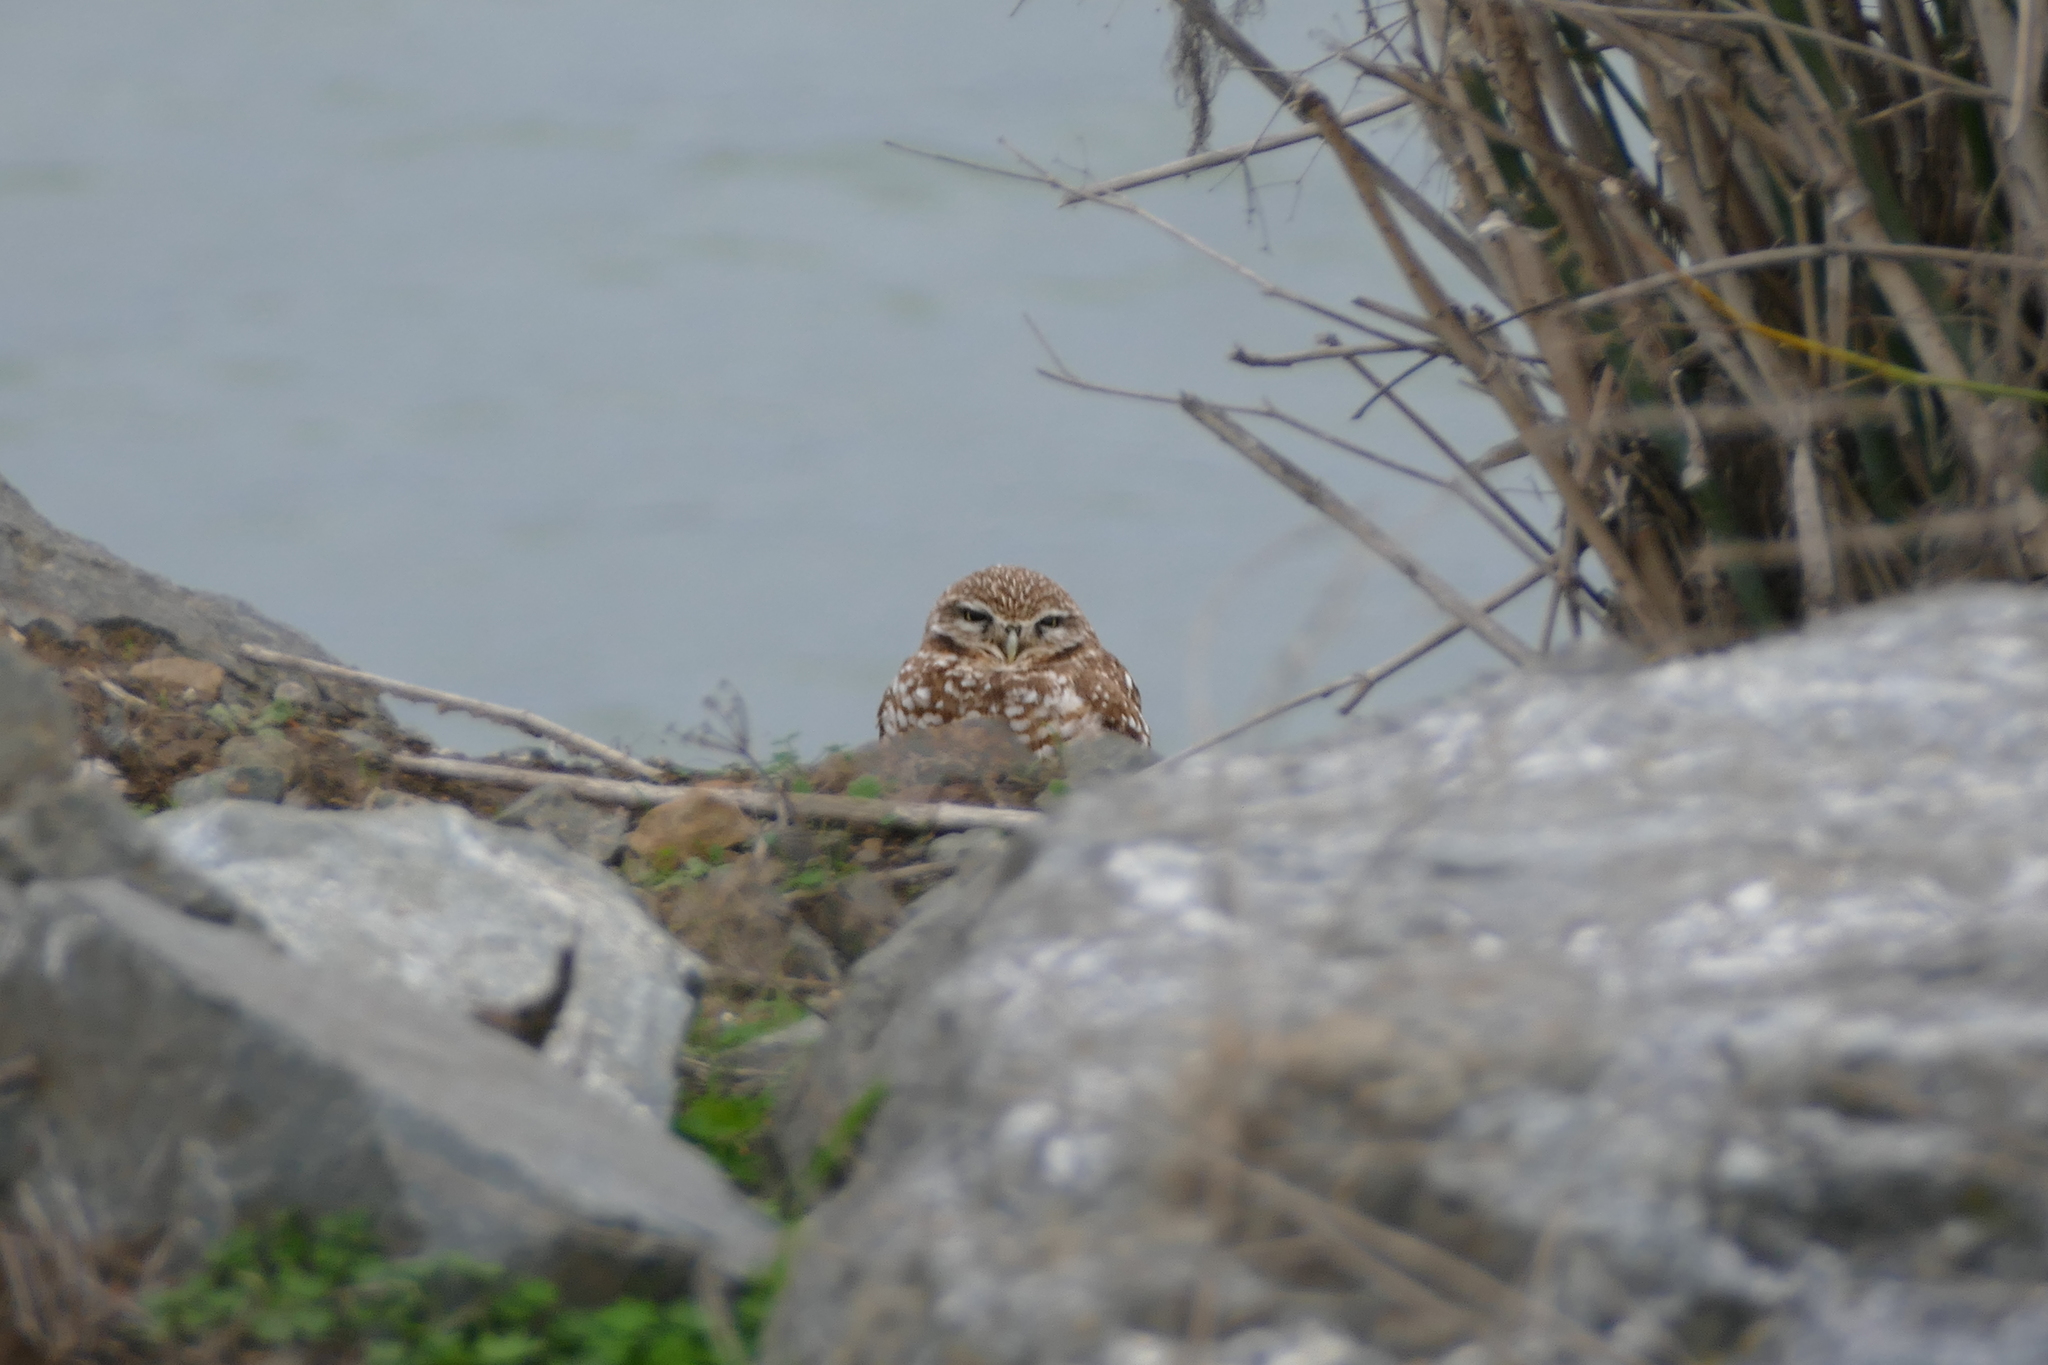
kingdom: Animalia
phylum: Chordata
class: Aves
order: Strigiformes
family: Strigidae
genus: Athene
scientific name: Athene cunicularia
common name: Burrowing owl
